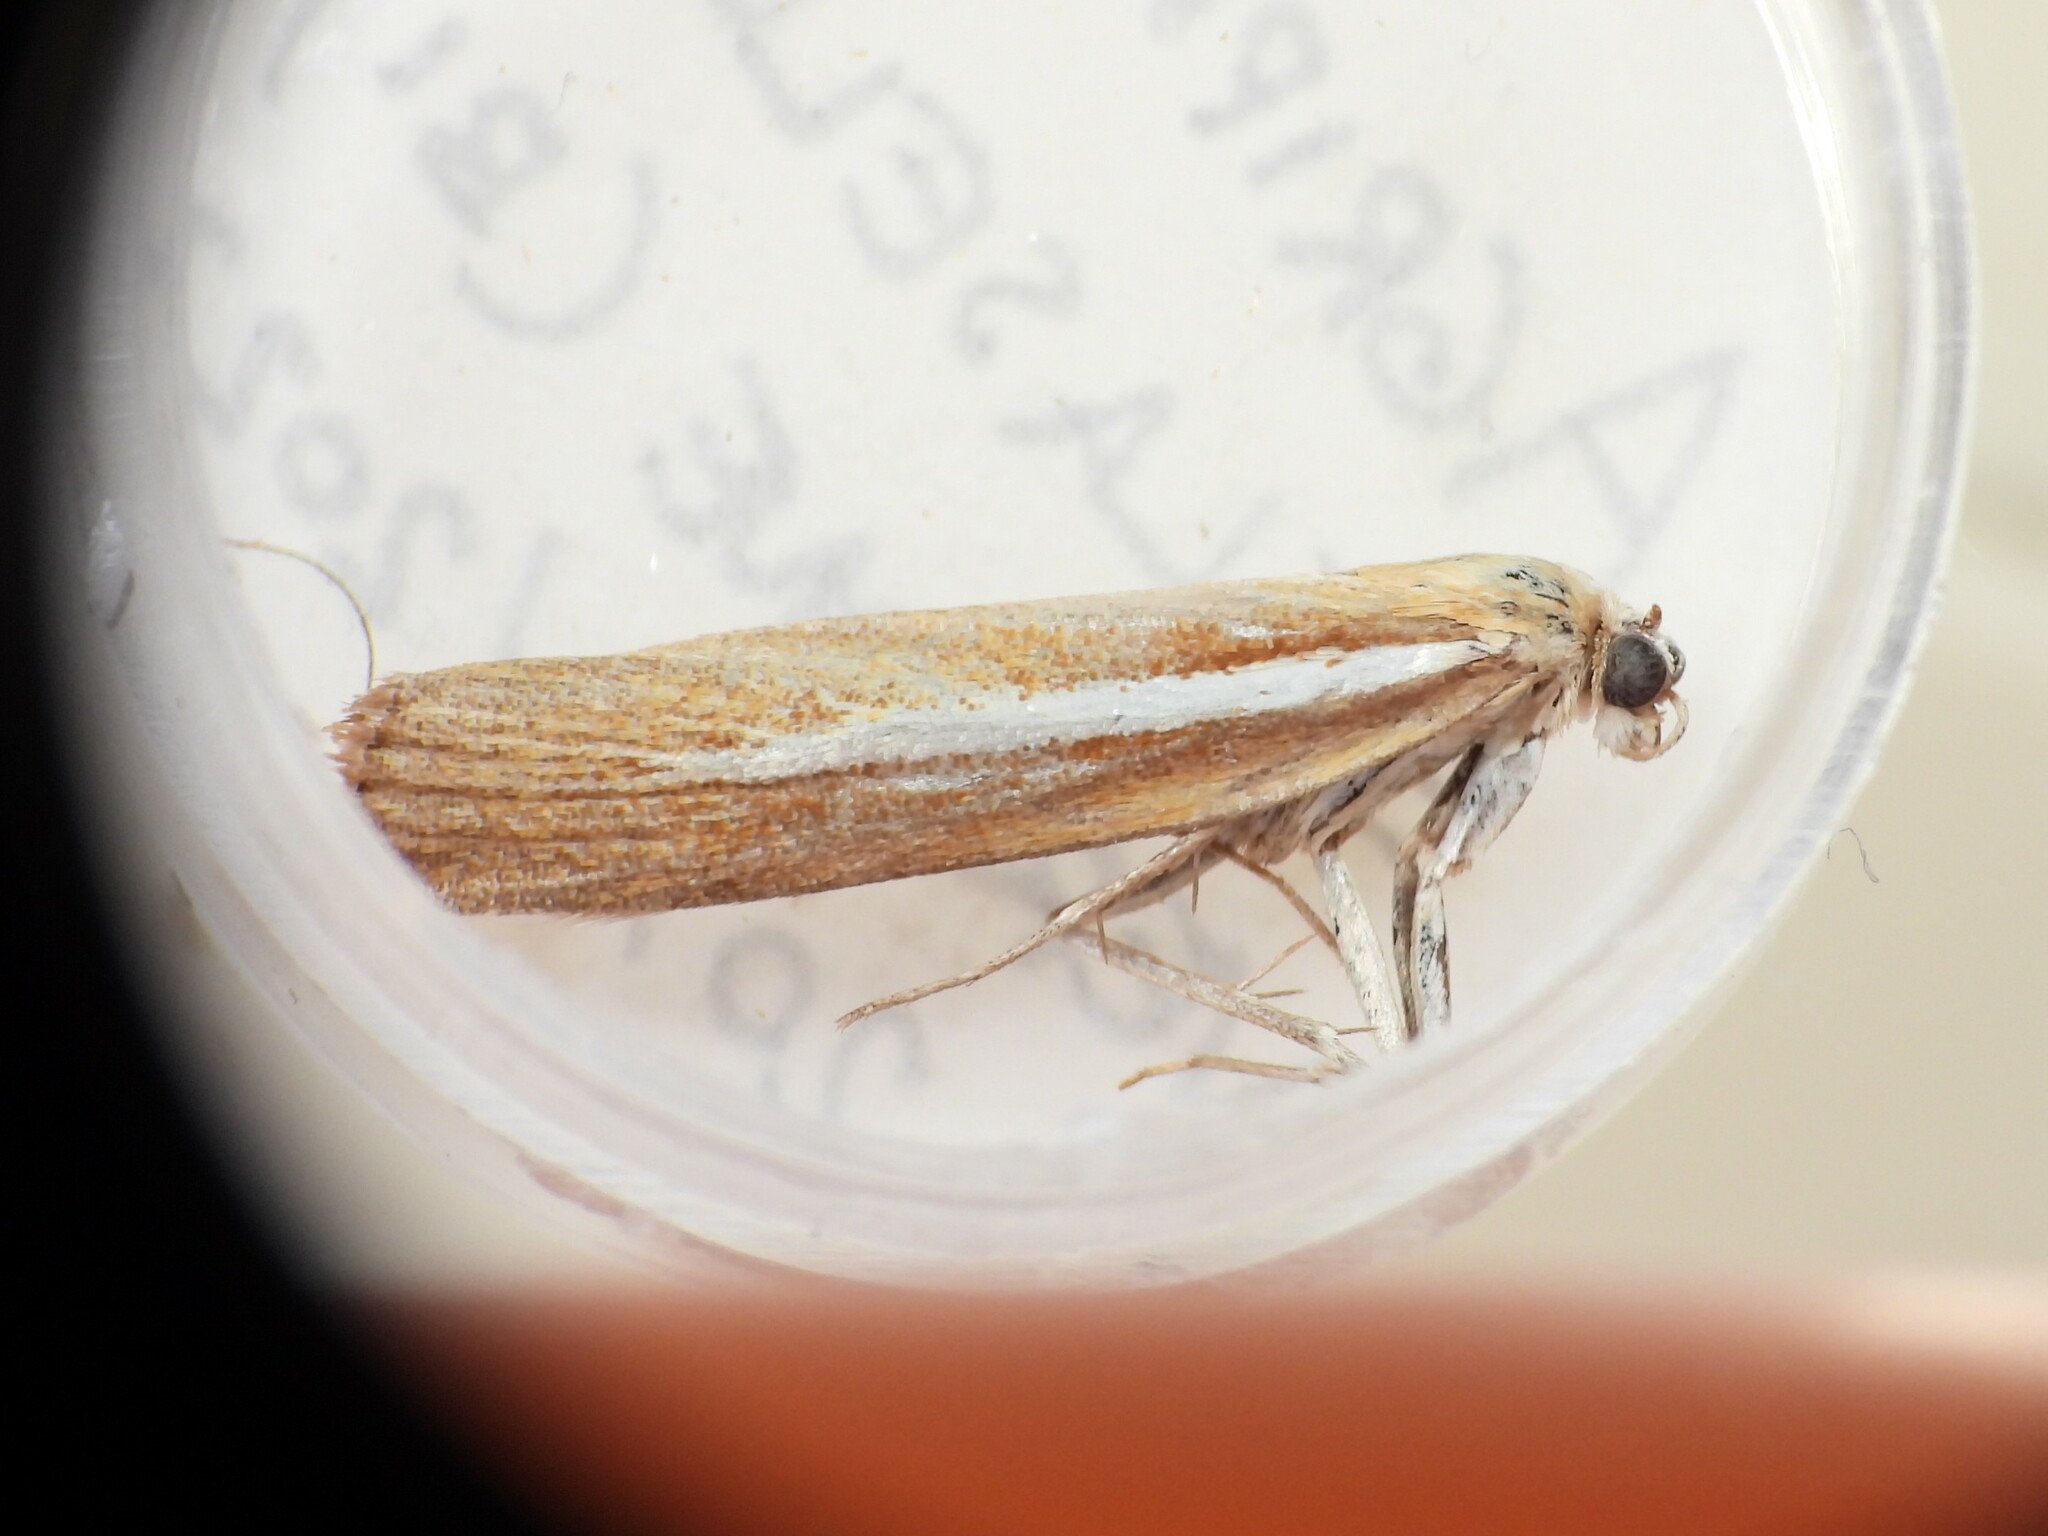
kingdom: Animalia
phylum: Arthropoda
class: Insecta
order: Lepidoptera
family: Crambidae
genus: Agriphila
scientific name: Agriphila selasella
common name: Pale-streak grass-veneer
